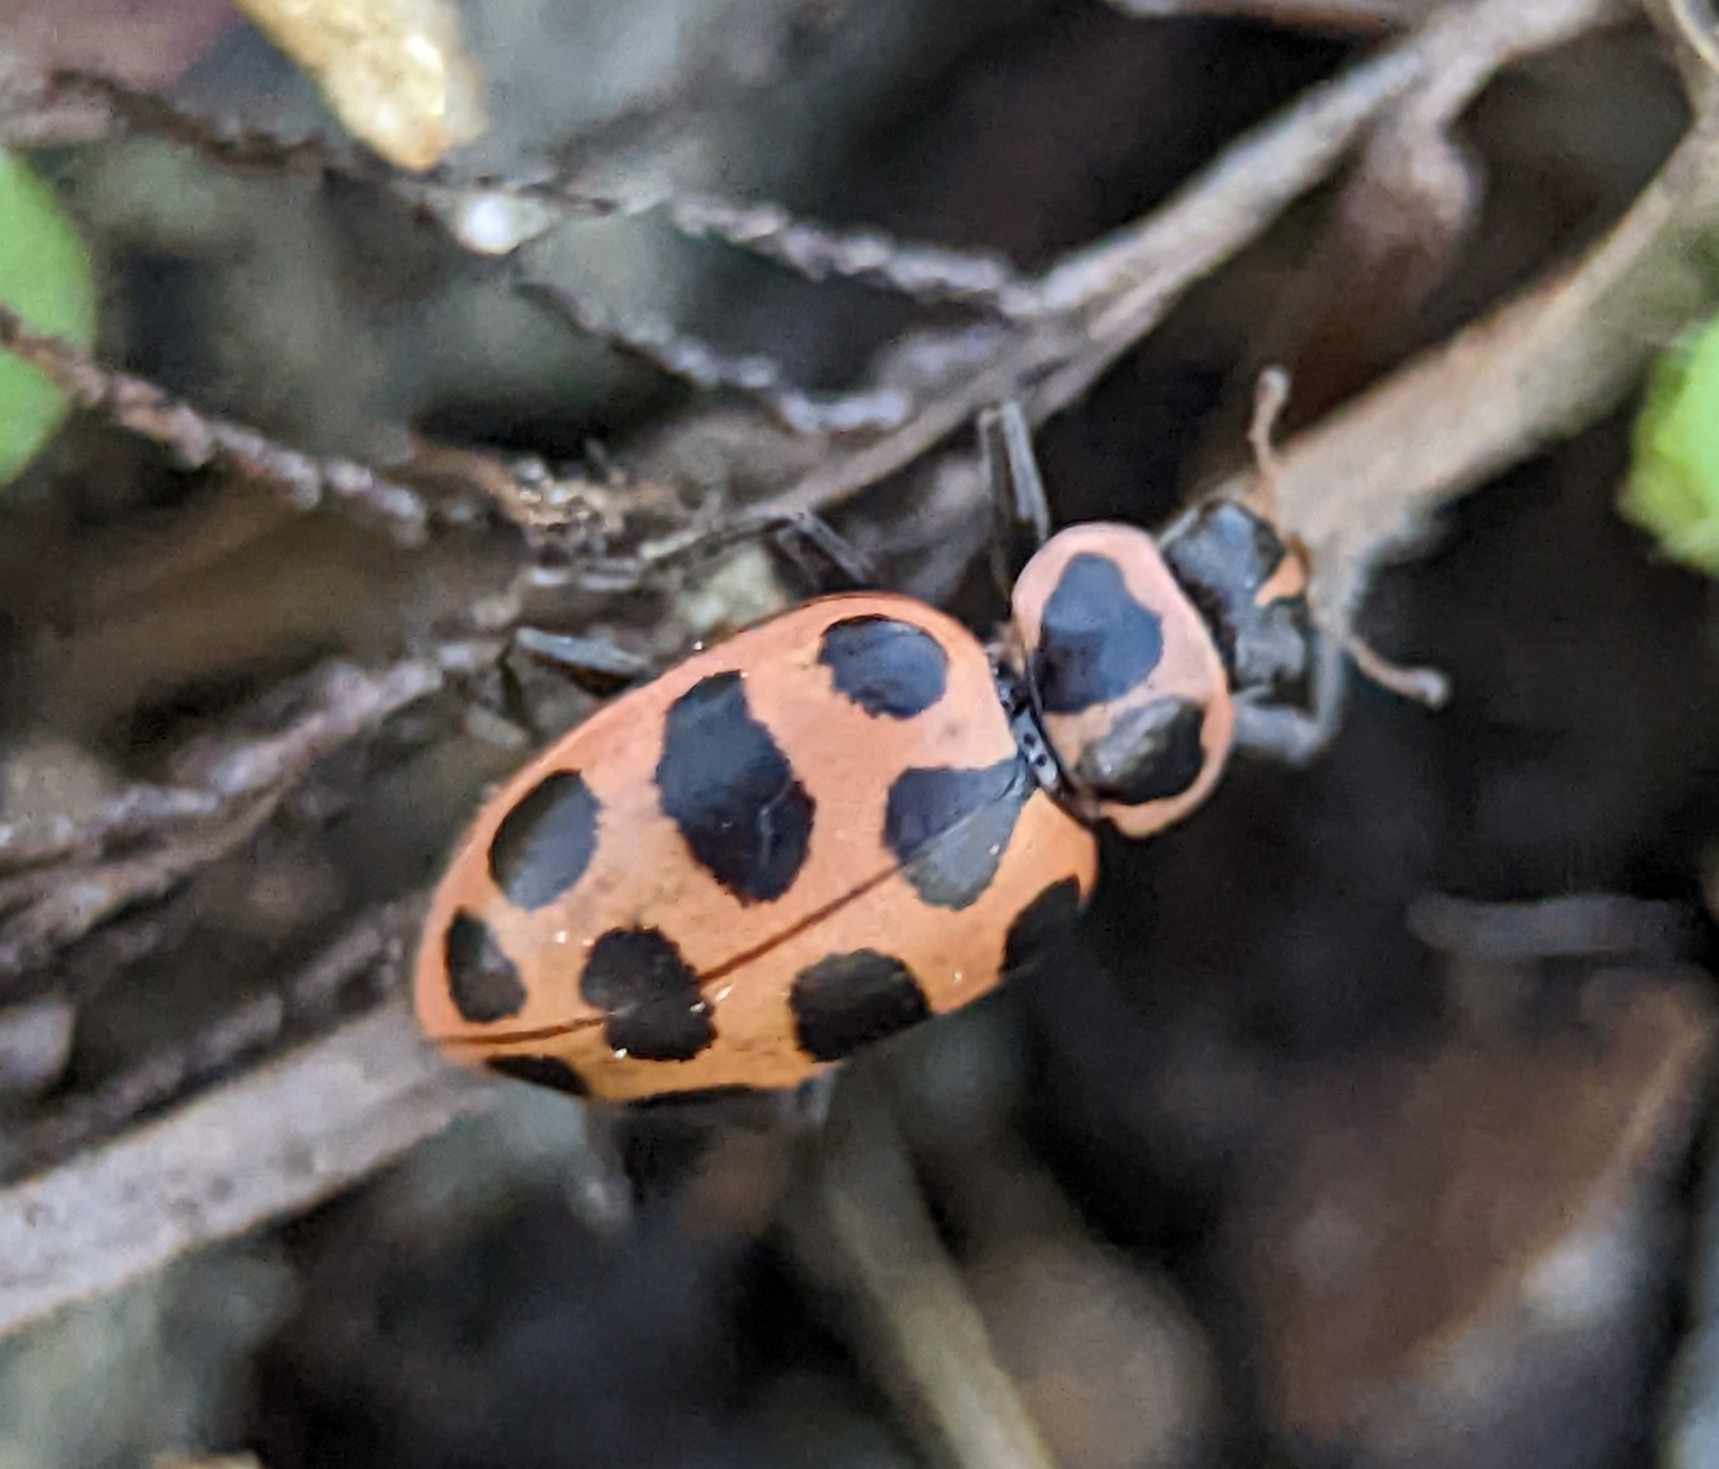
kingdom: Animalia
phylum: Arthropoda
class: Insecta
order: Coleoptera
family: Coccinellidae
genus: Coleomegilla
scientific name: Coleomegilla maculata
